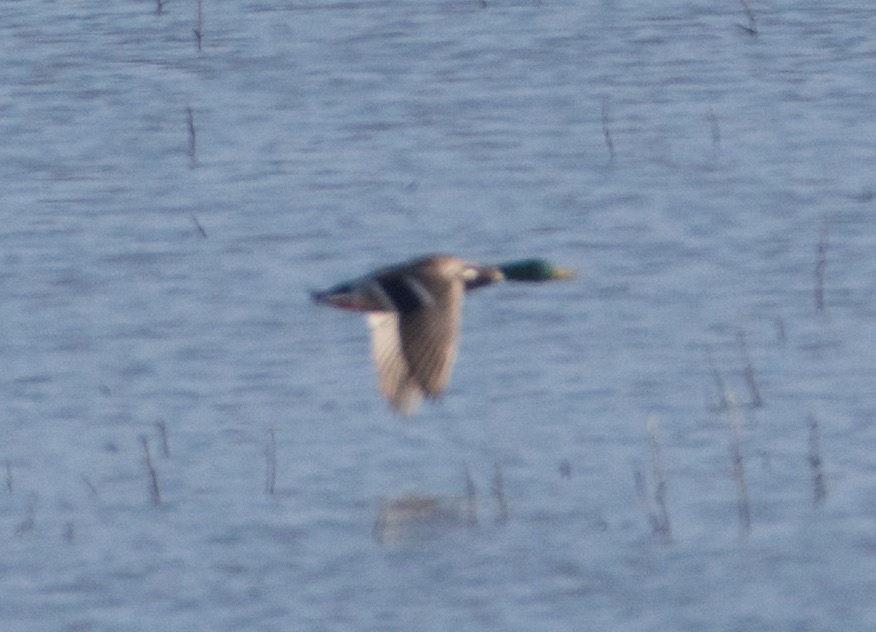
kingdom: Animalia
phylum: Chordata
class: Aves
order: Anseriformes
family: Anatidae
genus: Anas
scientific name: Anas platyrhynchos
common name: Mallard
